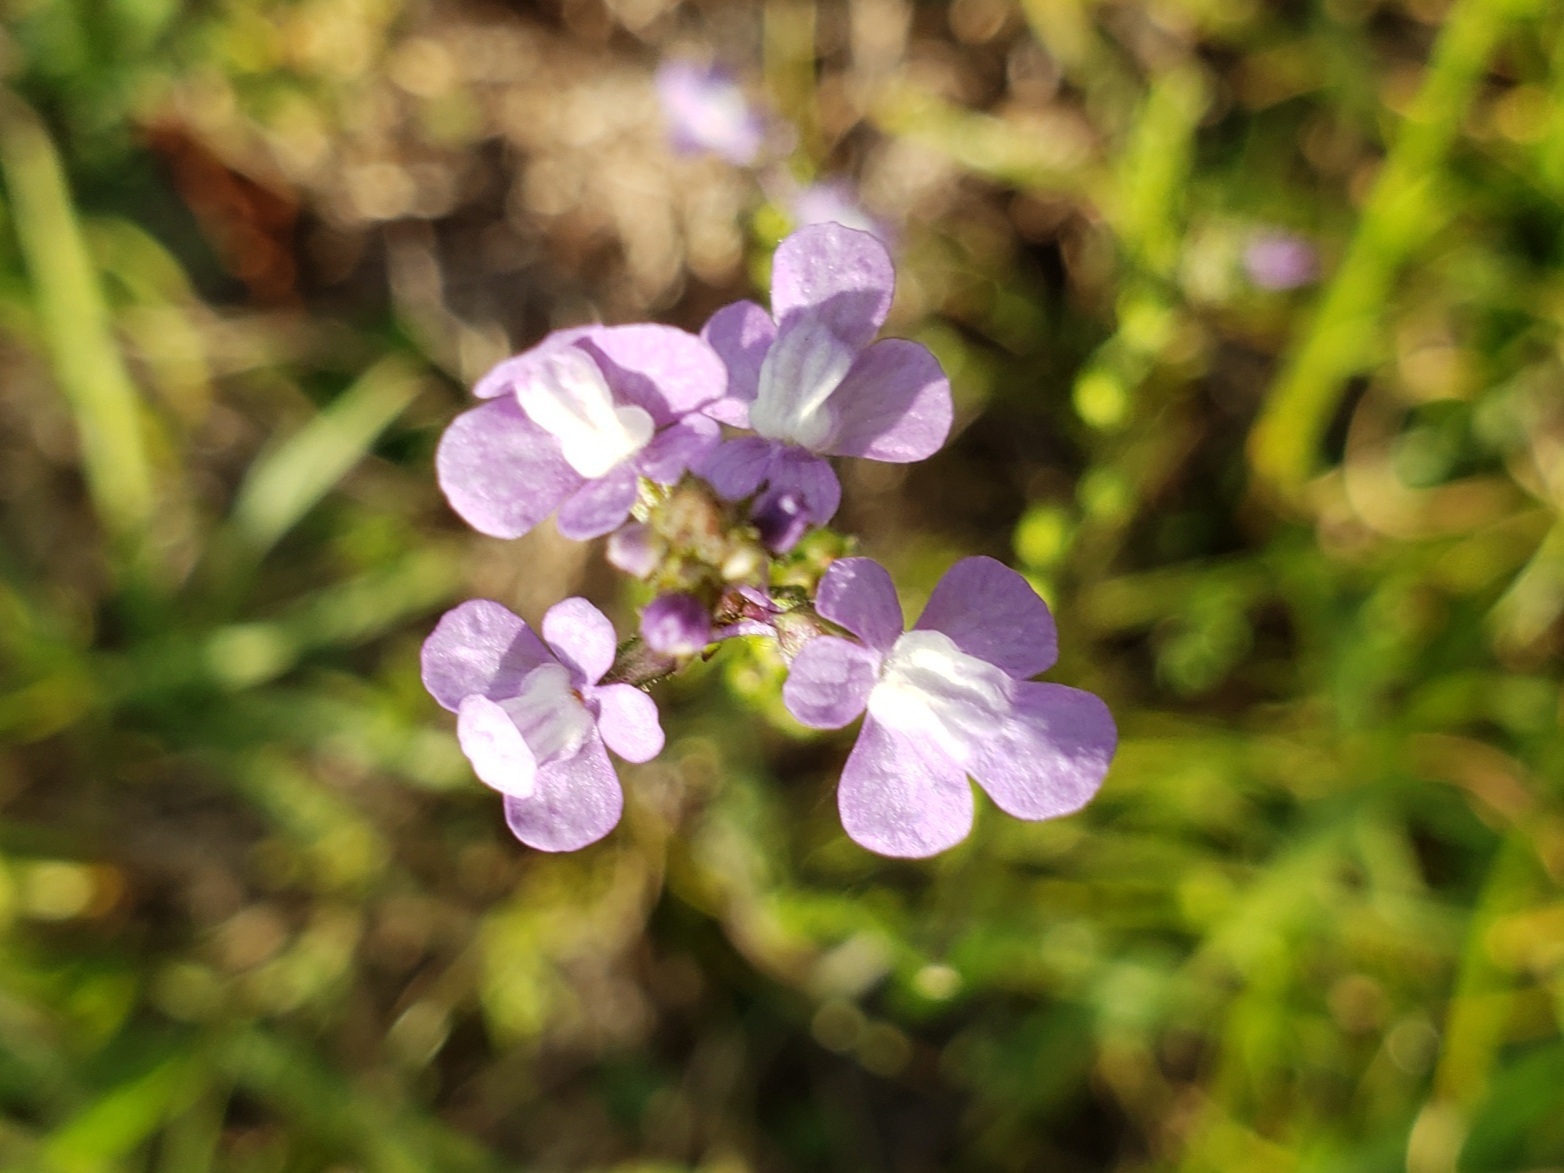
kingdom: Plantae
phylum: Tracheophyta
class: Magnoliopsida
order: Lamiales
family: Plantaginaceae
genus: Nuttallanthus
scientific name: Nuttallanthus canadensis
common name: Blue toadflax
